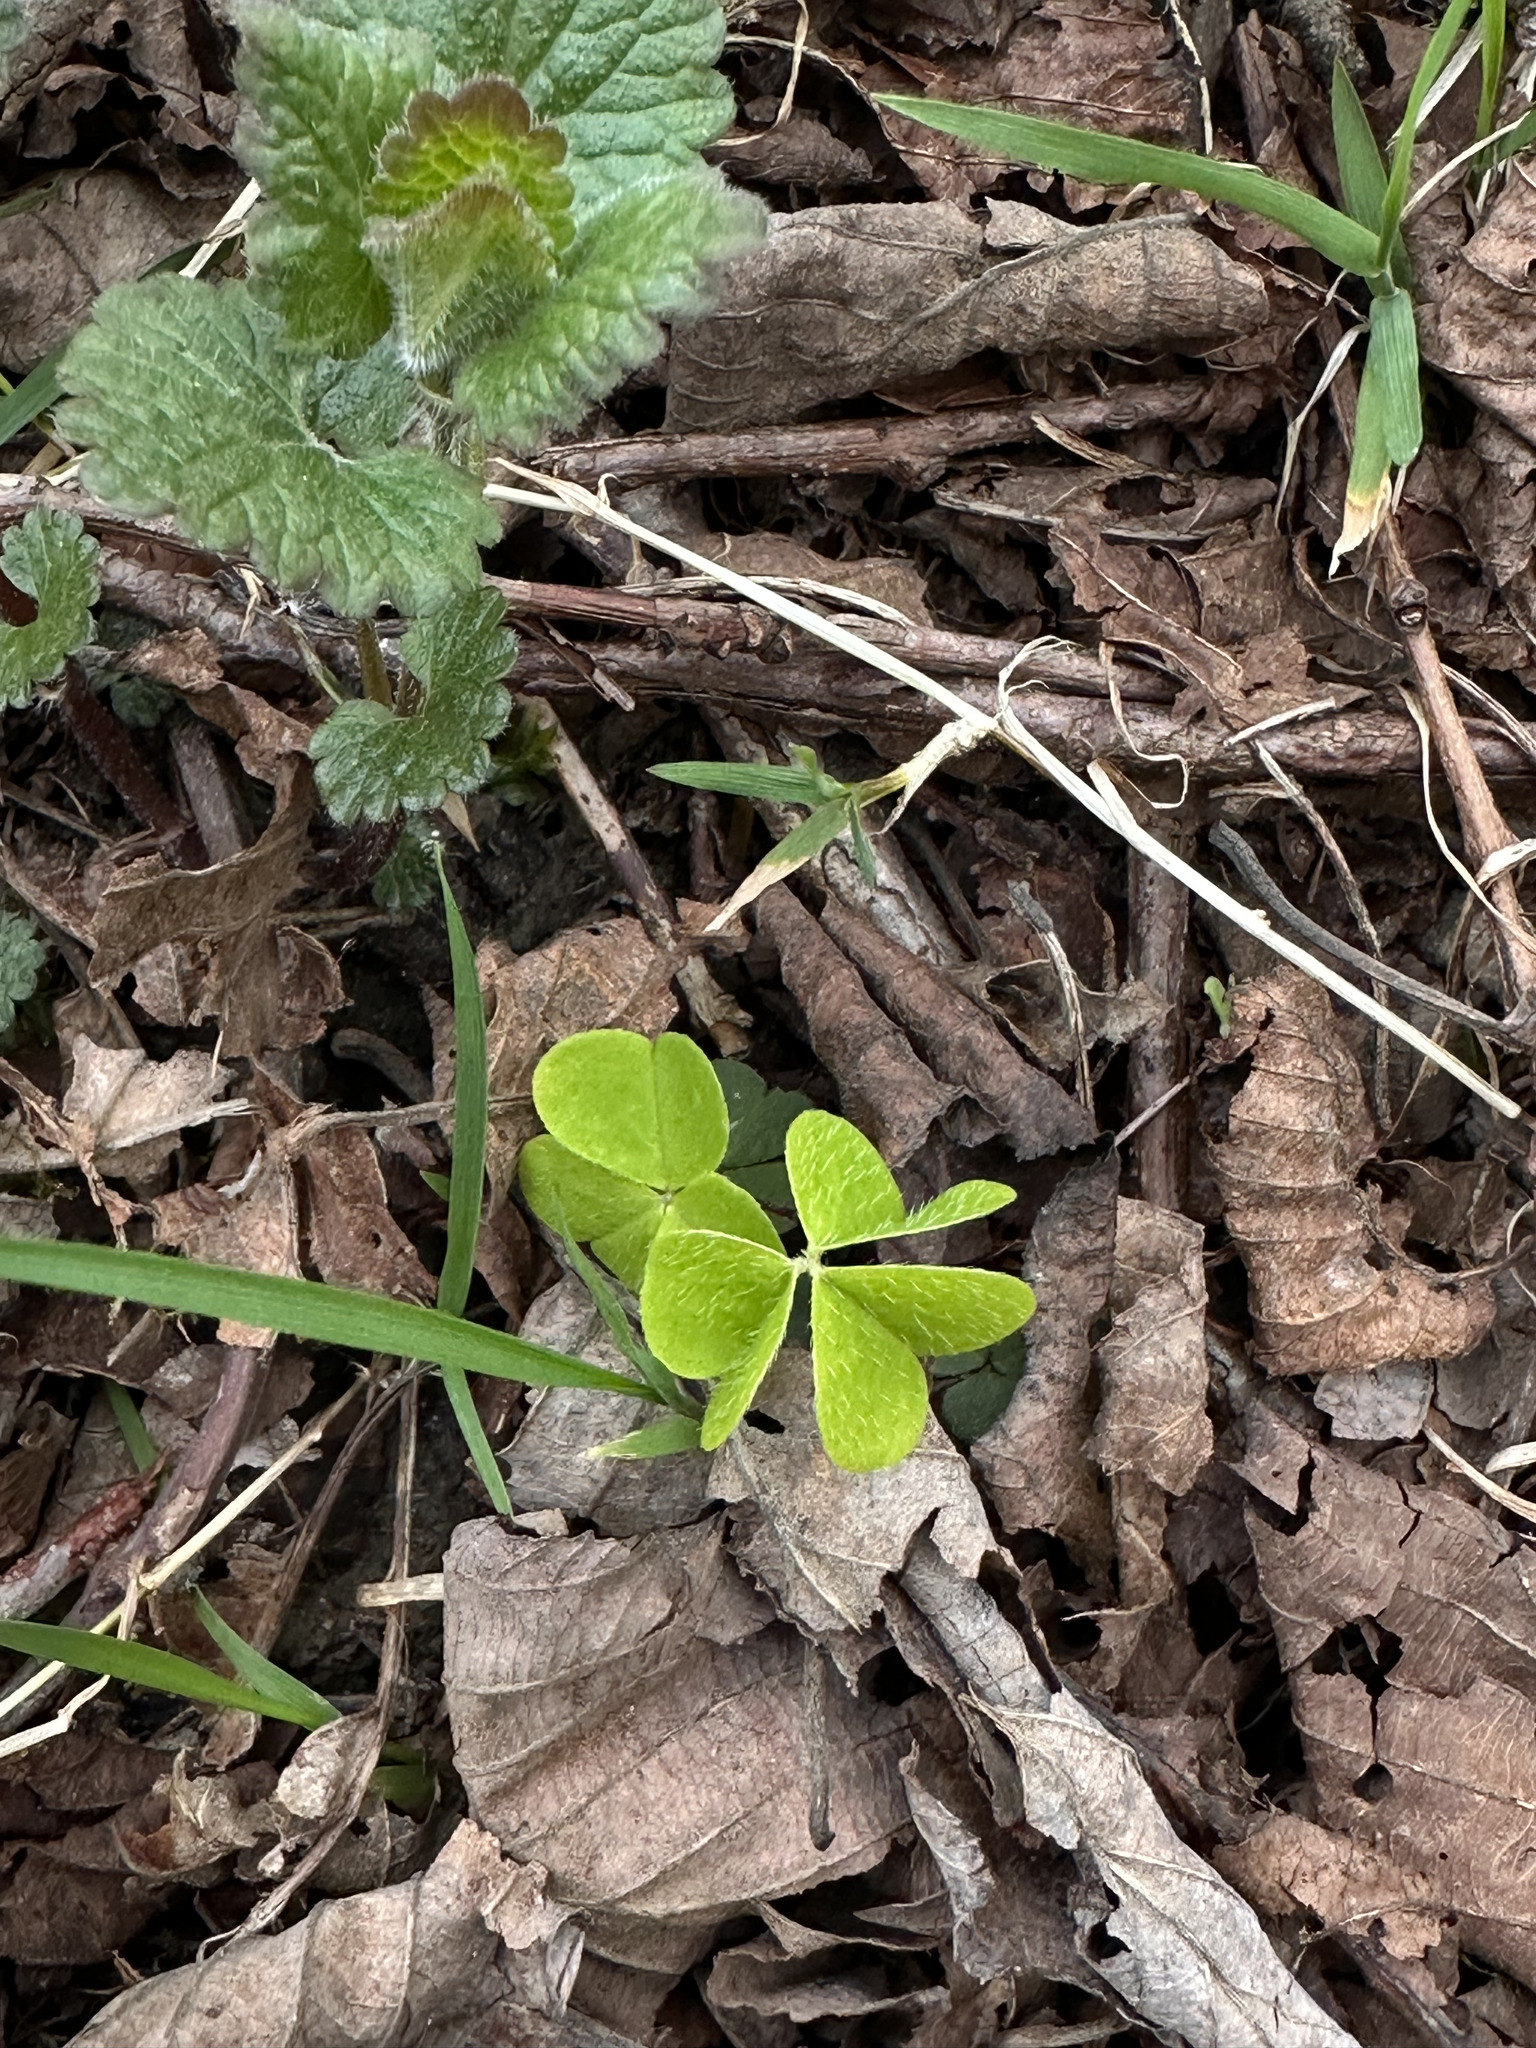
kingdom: Plantae
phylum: Tracheophyta
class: Magnoliopsida
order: Oxalidales
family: Oxalidaceae
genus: Oxalis
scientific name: Oxalis acetosella
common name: Wood-sorrel
